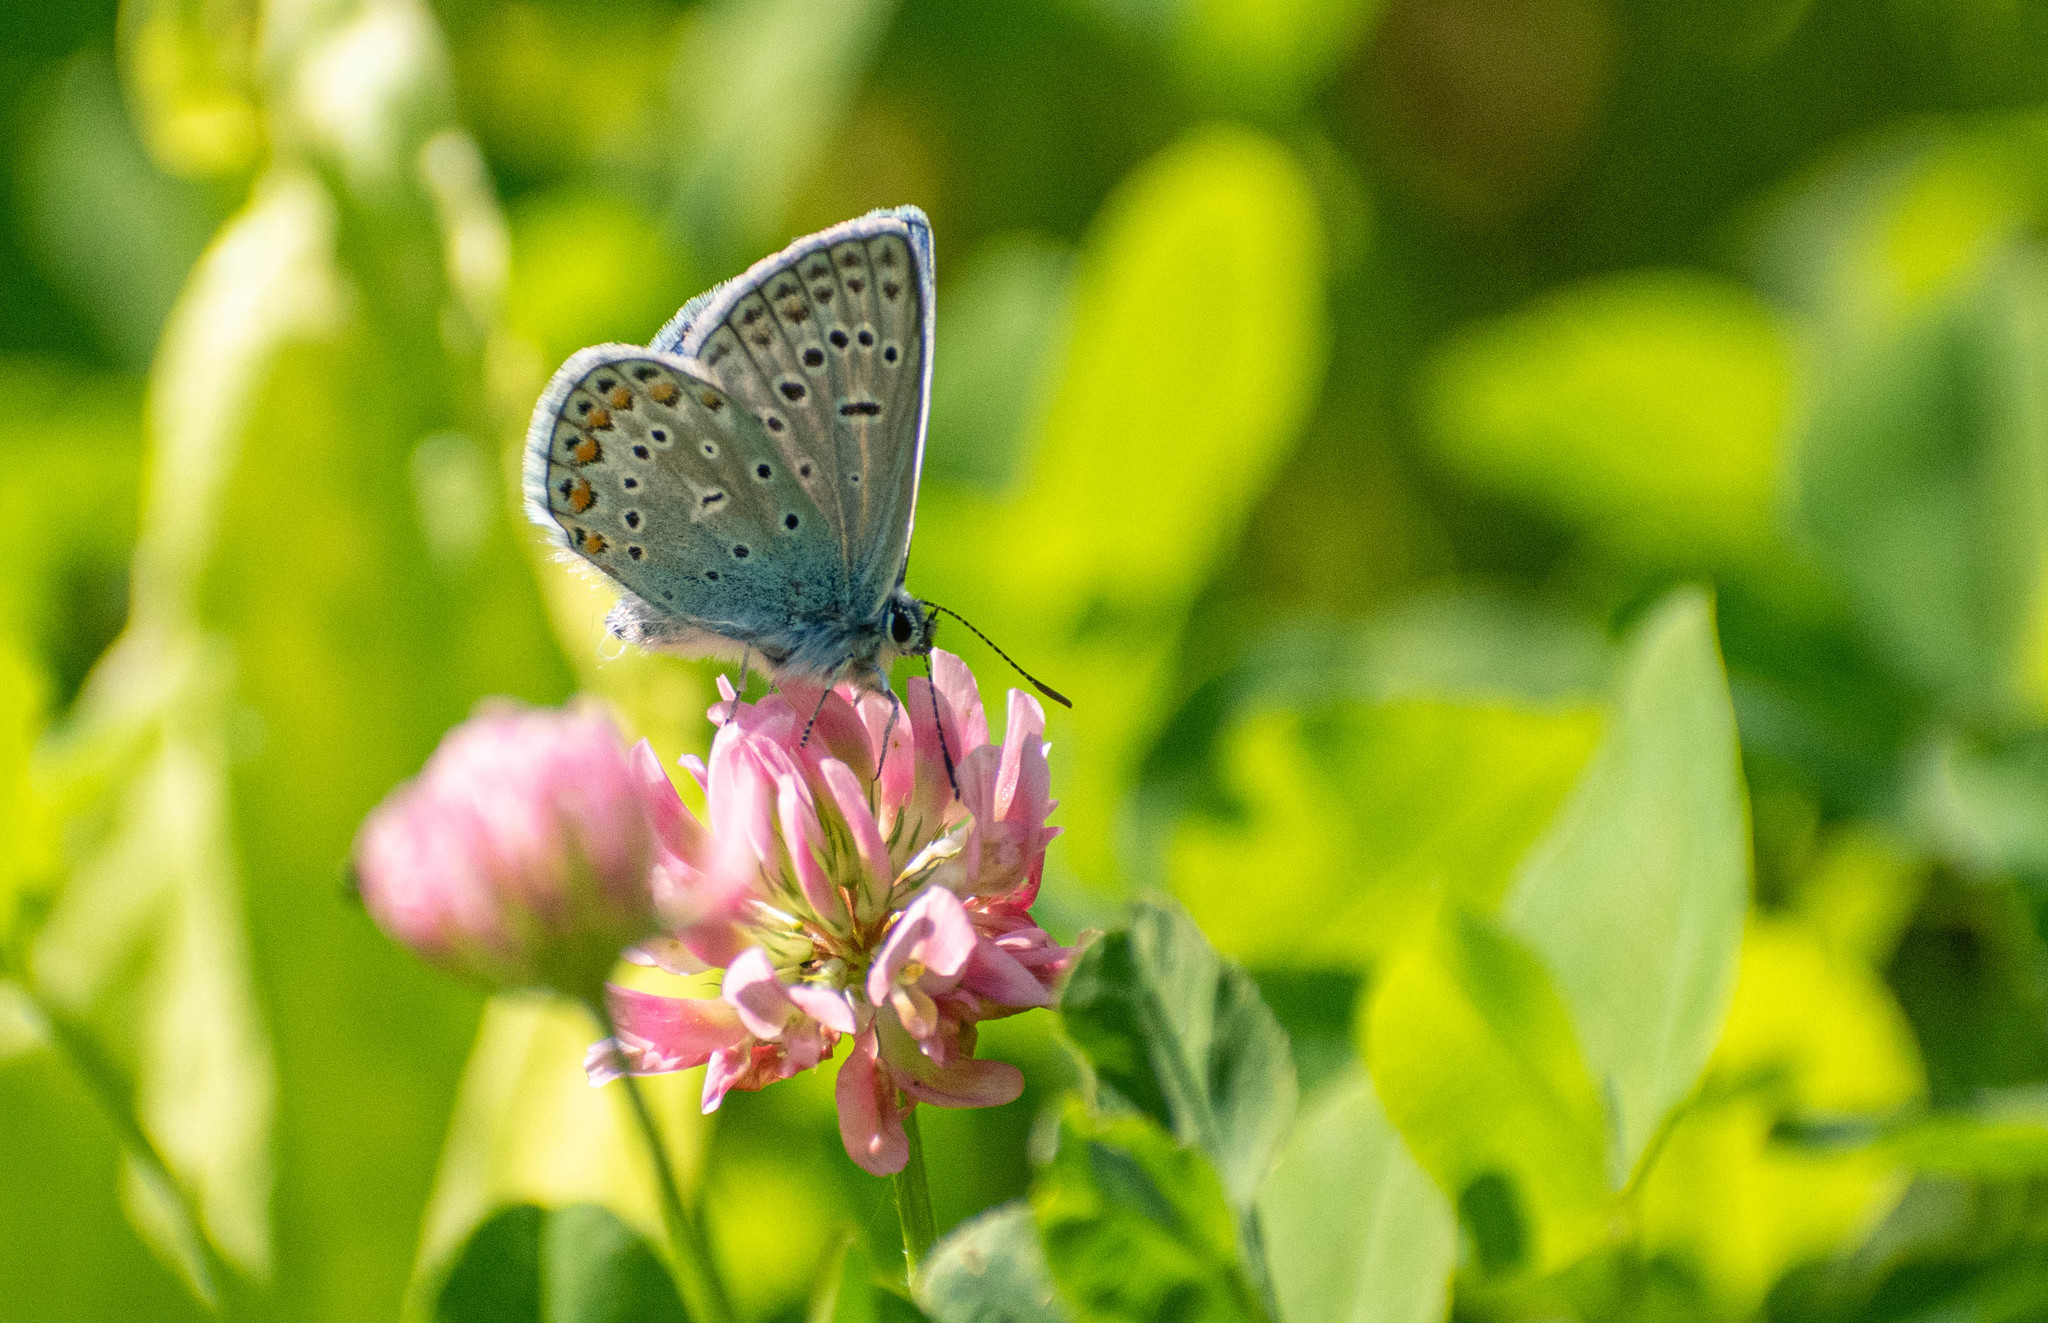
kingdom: Animalia
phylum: Arthropoda
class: Insecta
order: Lepidoptera
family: Lycaenidae
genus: Polyommatus
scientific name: Polyommatus icarus
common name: Common blue
